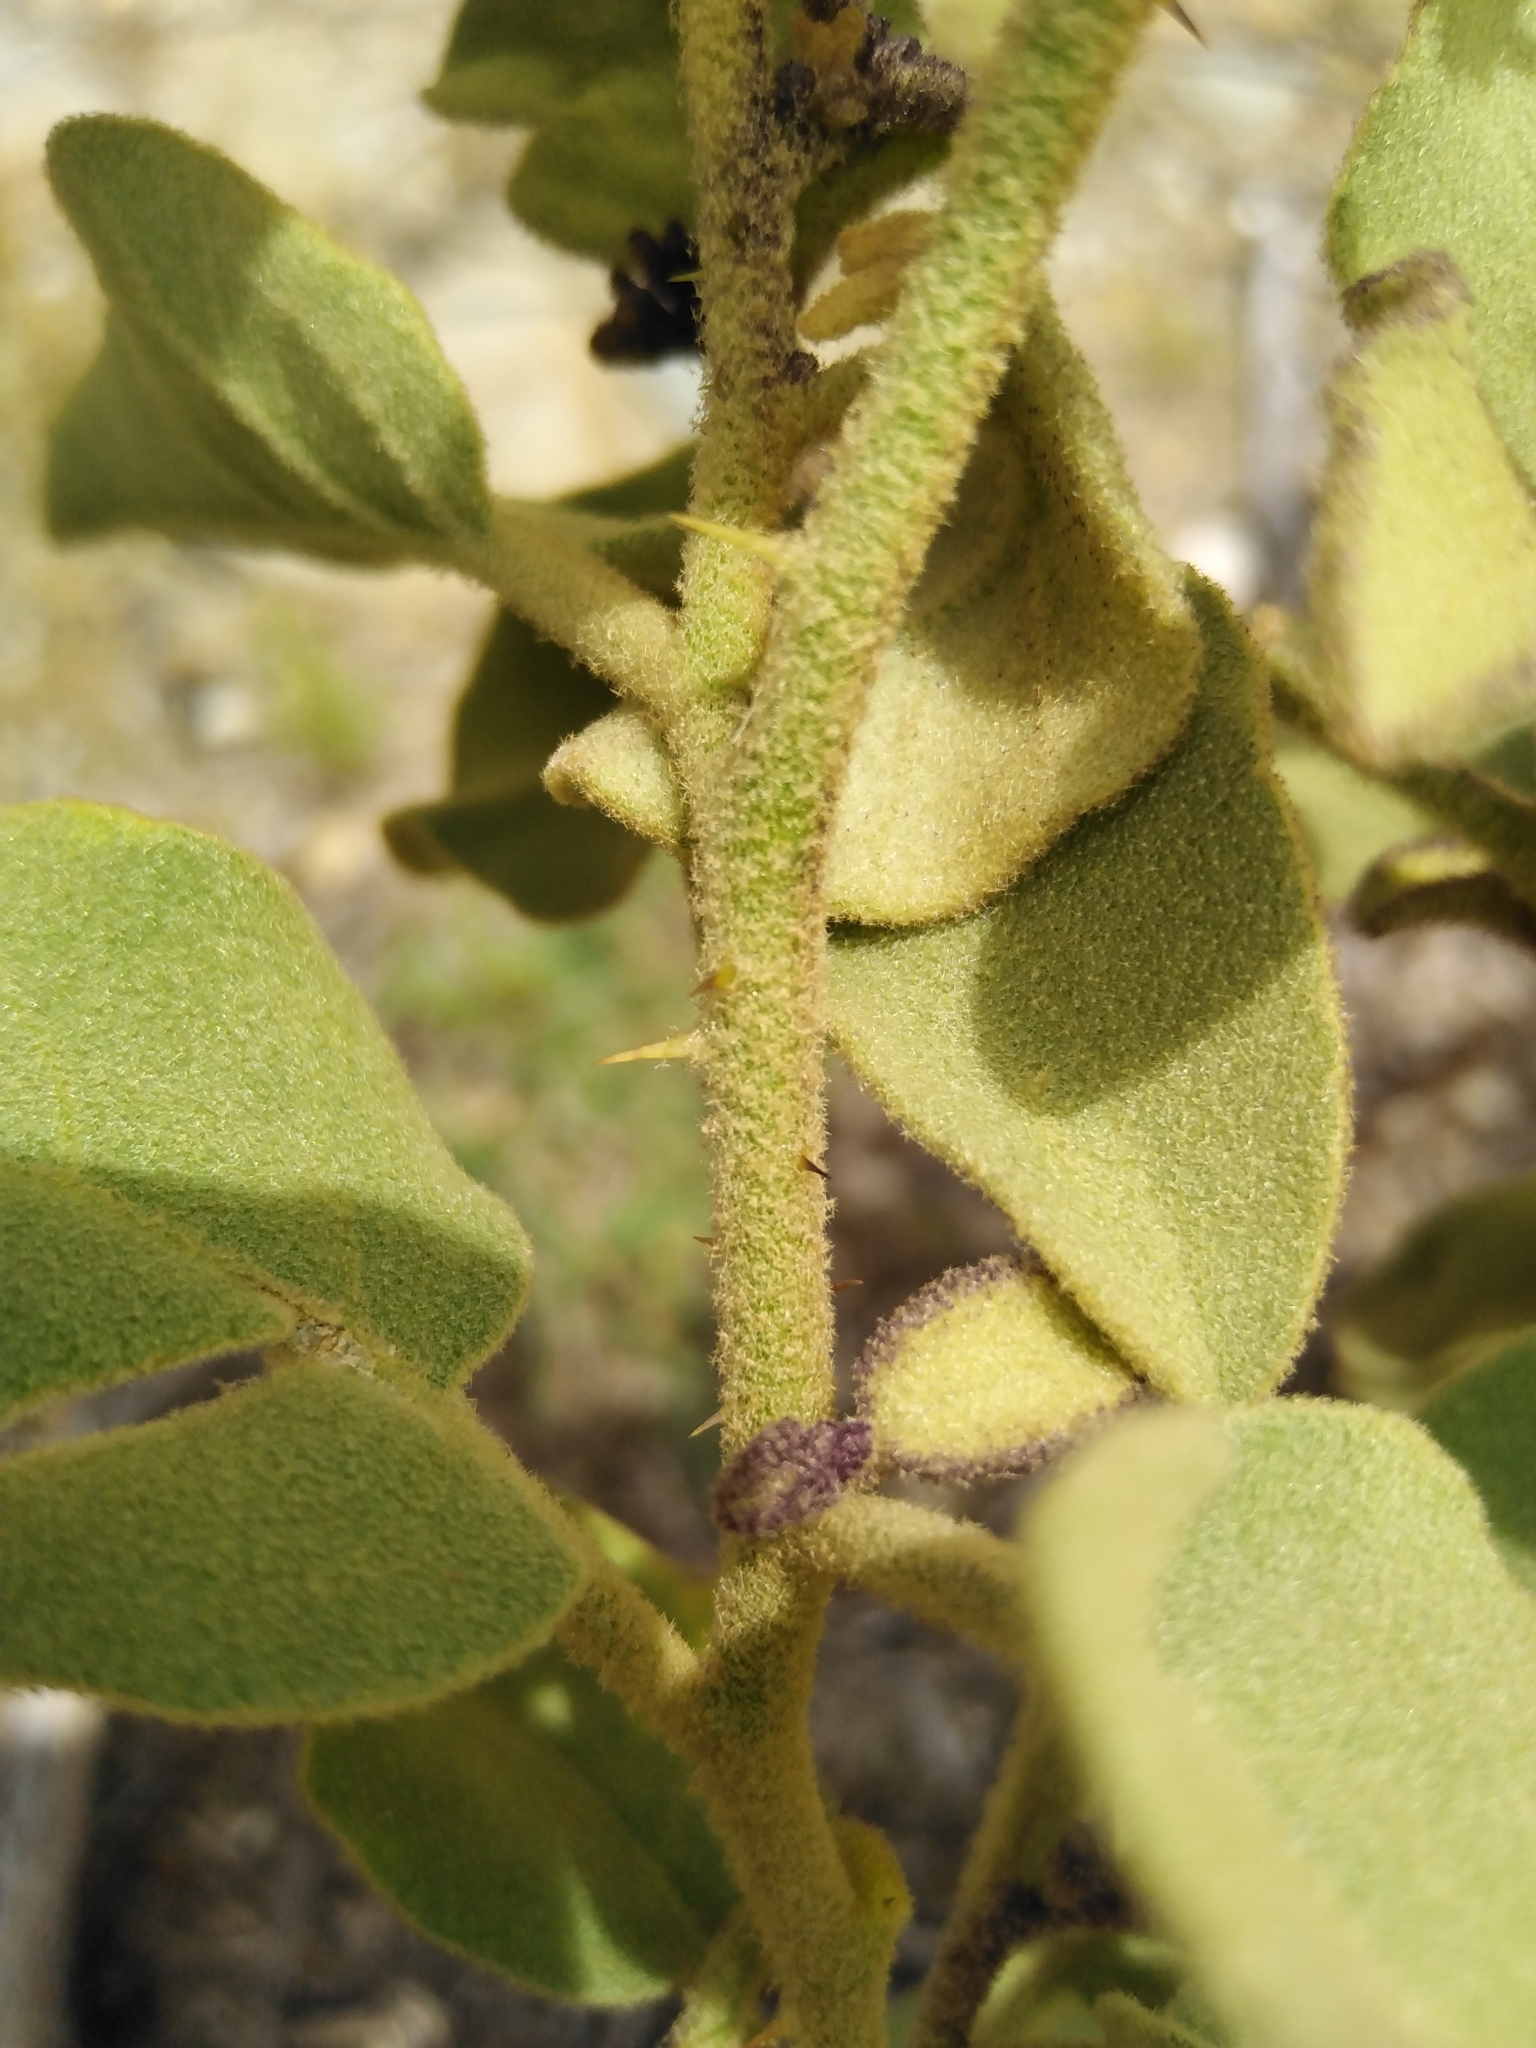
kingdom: Plantae
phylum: Tracheophyta
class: Magnoliopsida
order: Solanales
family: Solanaceae
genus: Solanum
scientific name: Solanum tomentosum
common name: Wild aubergine
